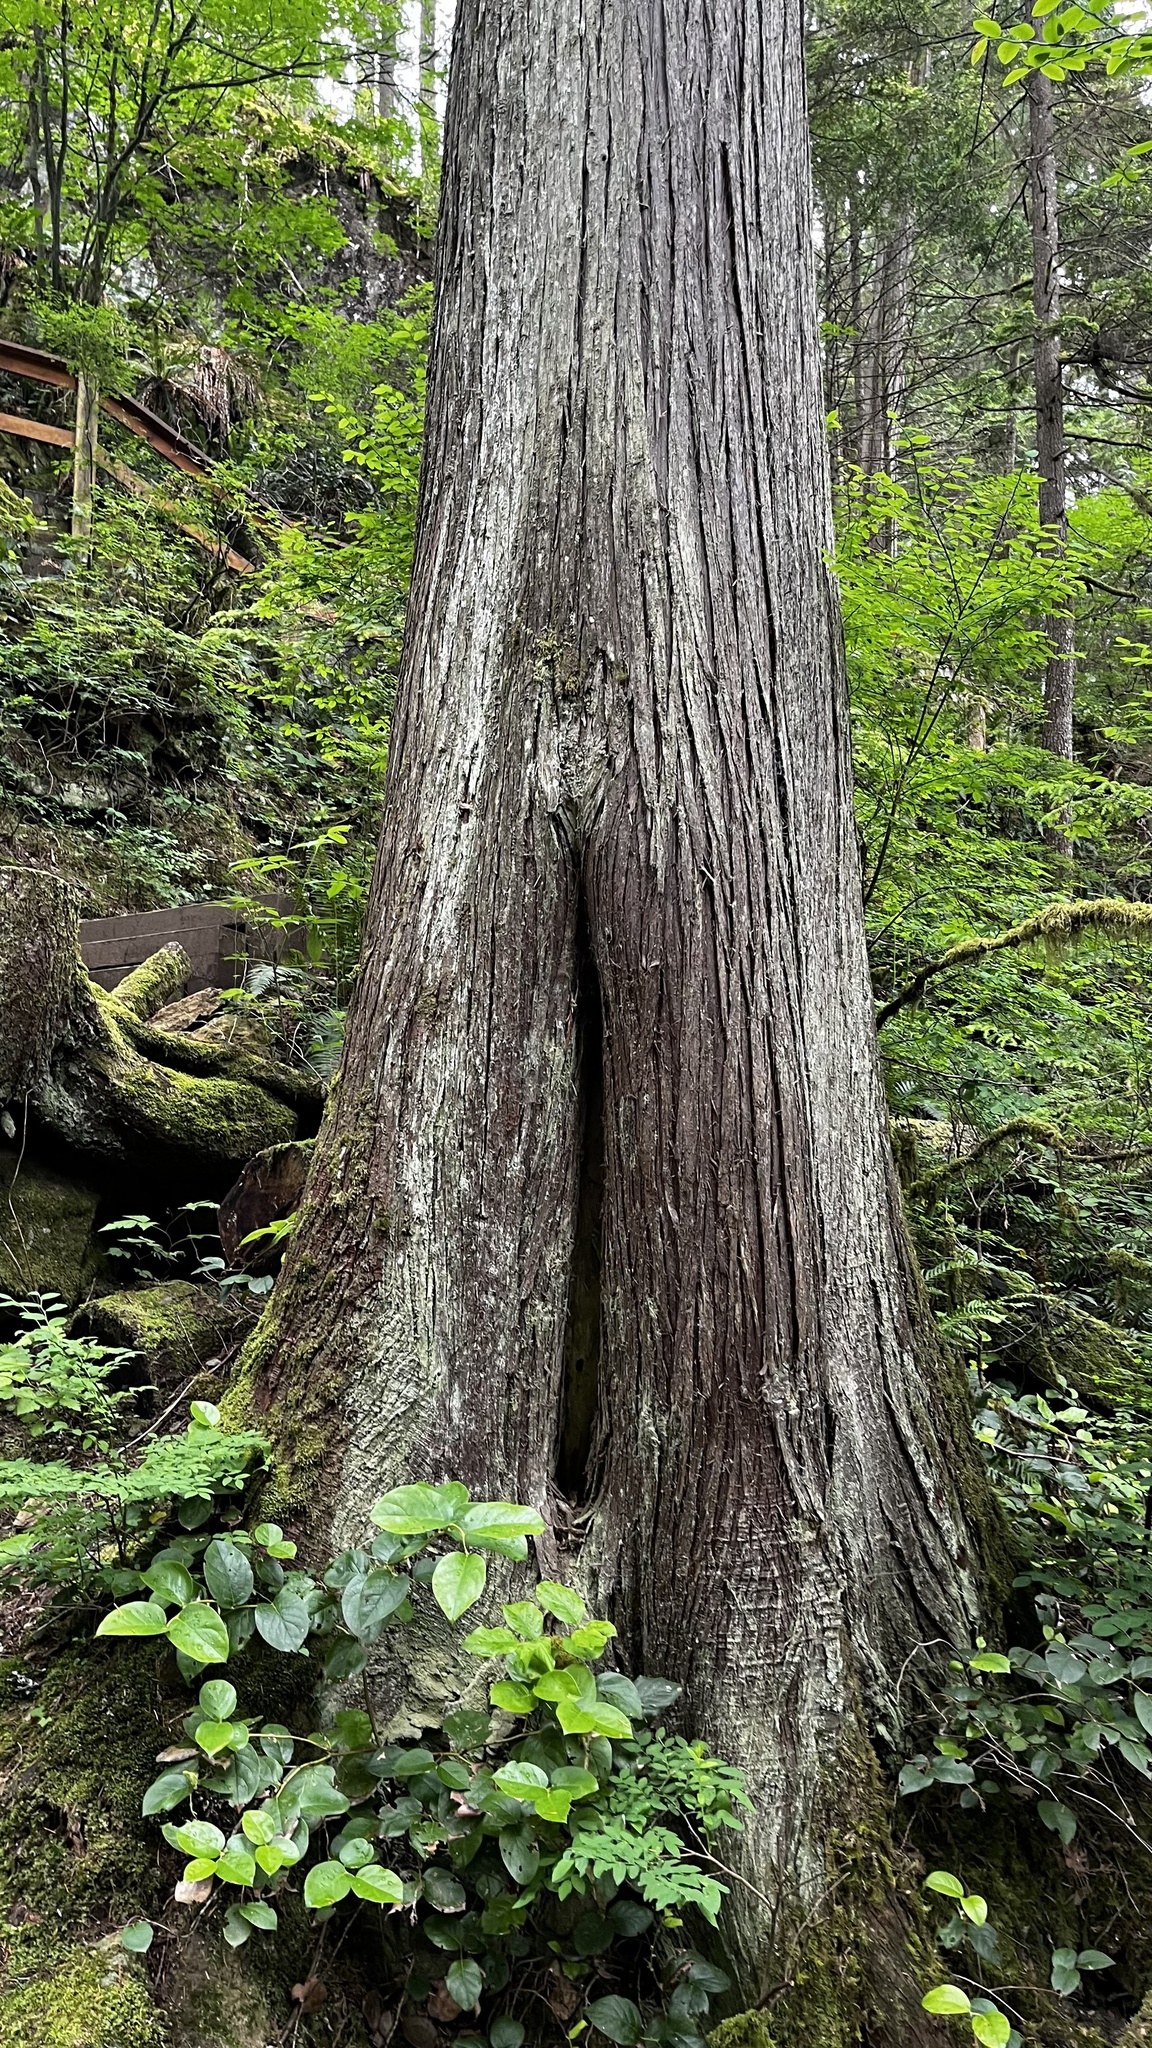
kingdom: Plantae
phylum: Tracheophyta
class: Pinopsida
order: Pinales
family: Cupressaceae
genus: Thuja
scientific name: Thuja plicata
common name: Western red-cedar
